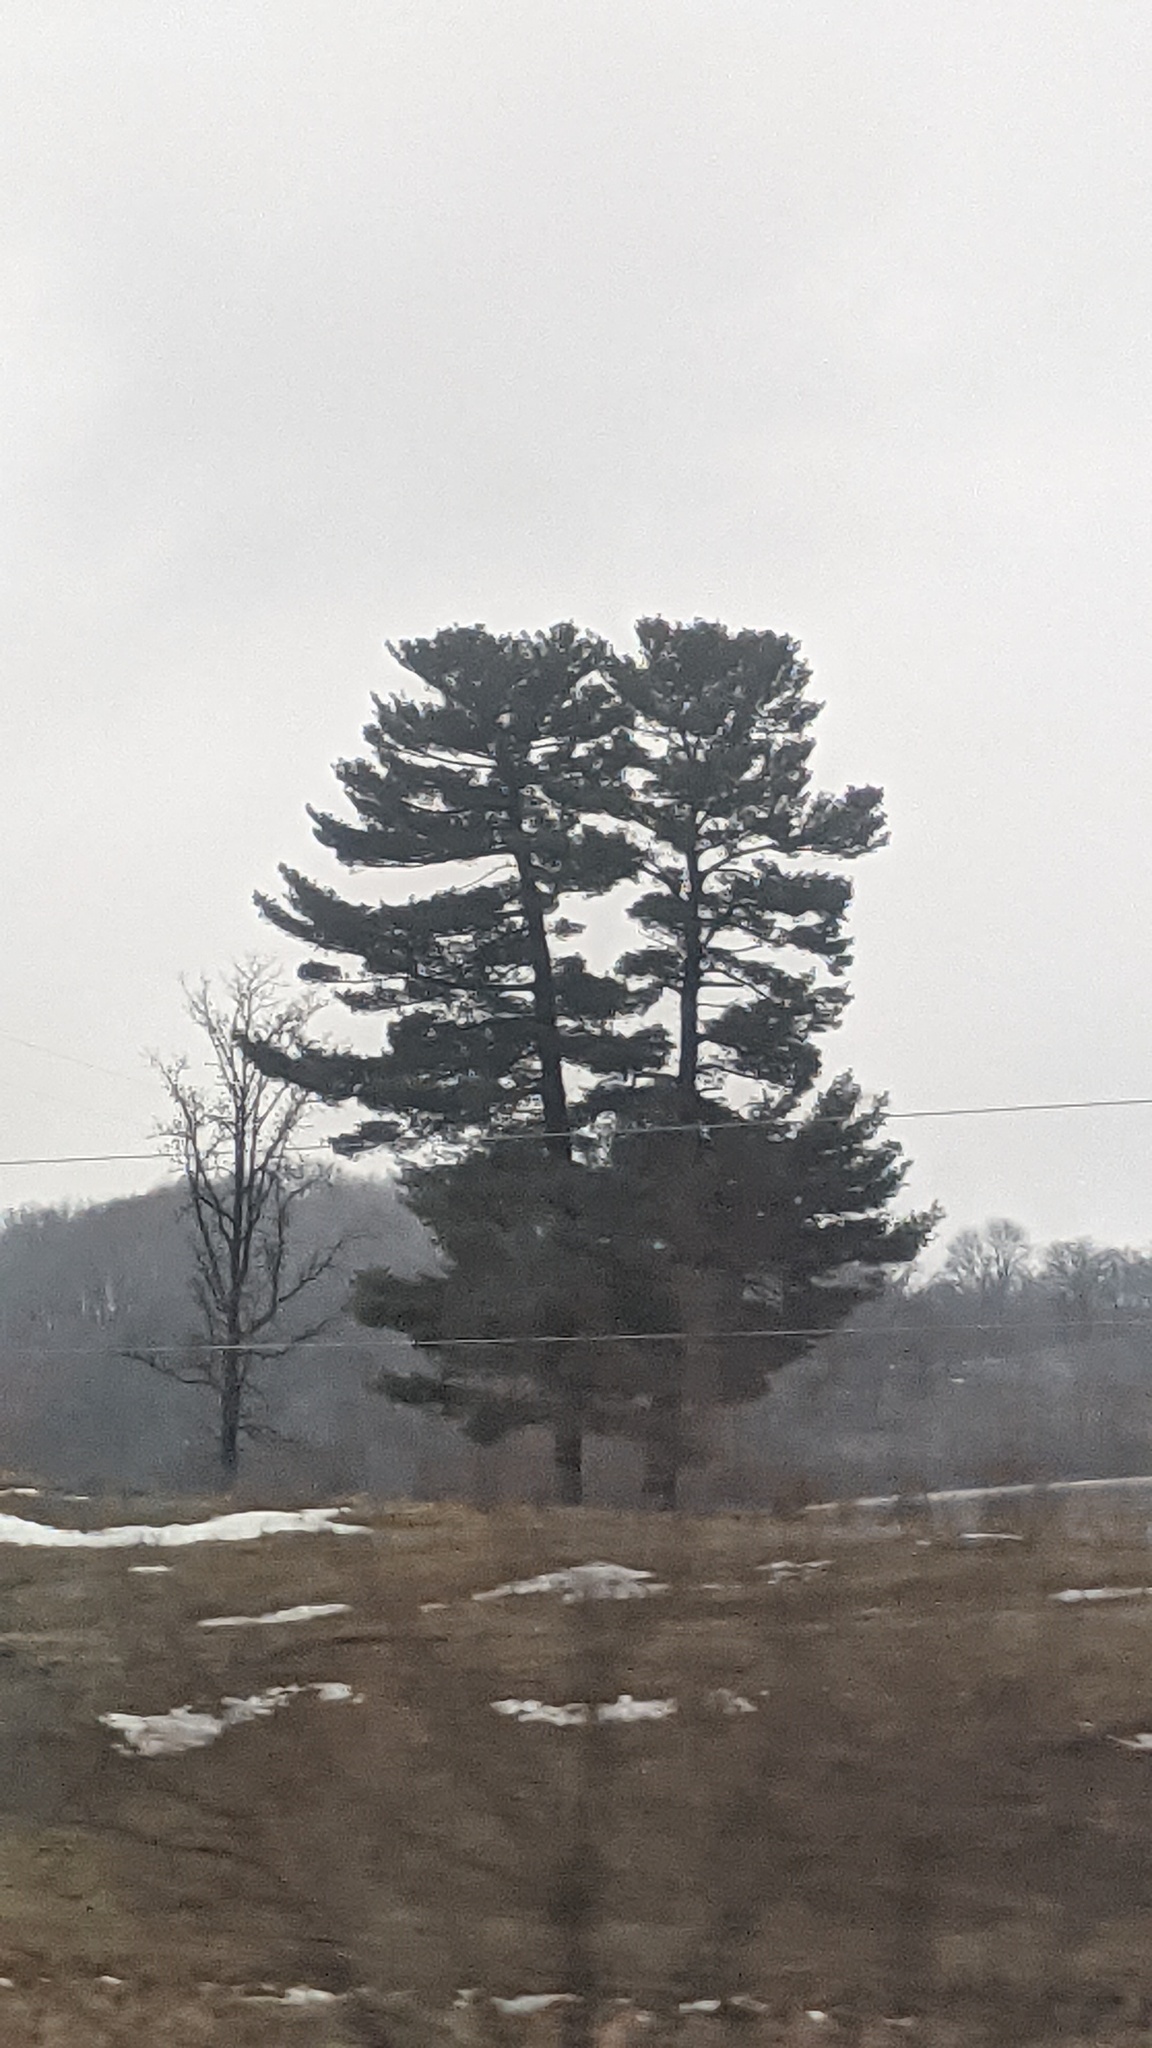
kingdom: Plantae
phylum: Tracheophyta
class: Pinopsida
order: Pinales
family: Pinaceae
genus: Pinus
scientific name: Pinus strobus
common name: Weymouth pine
